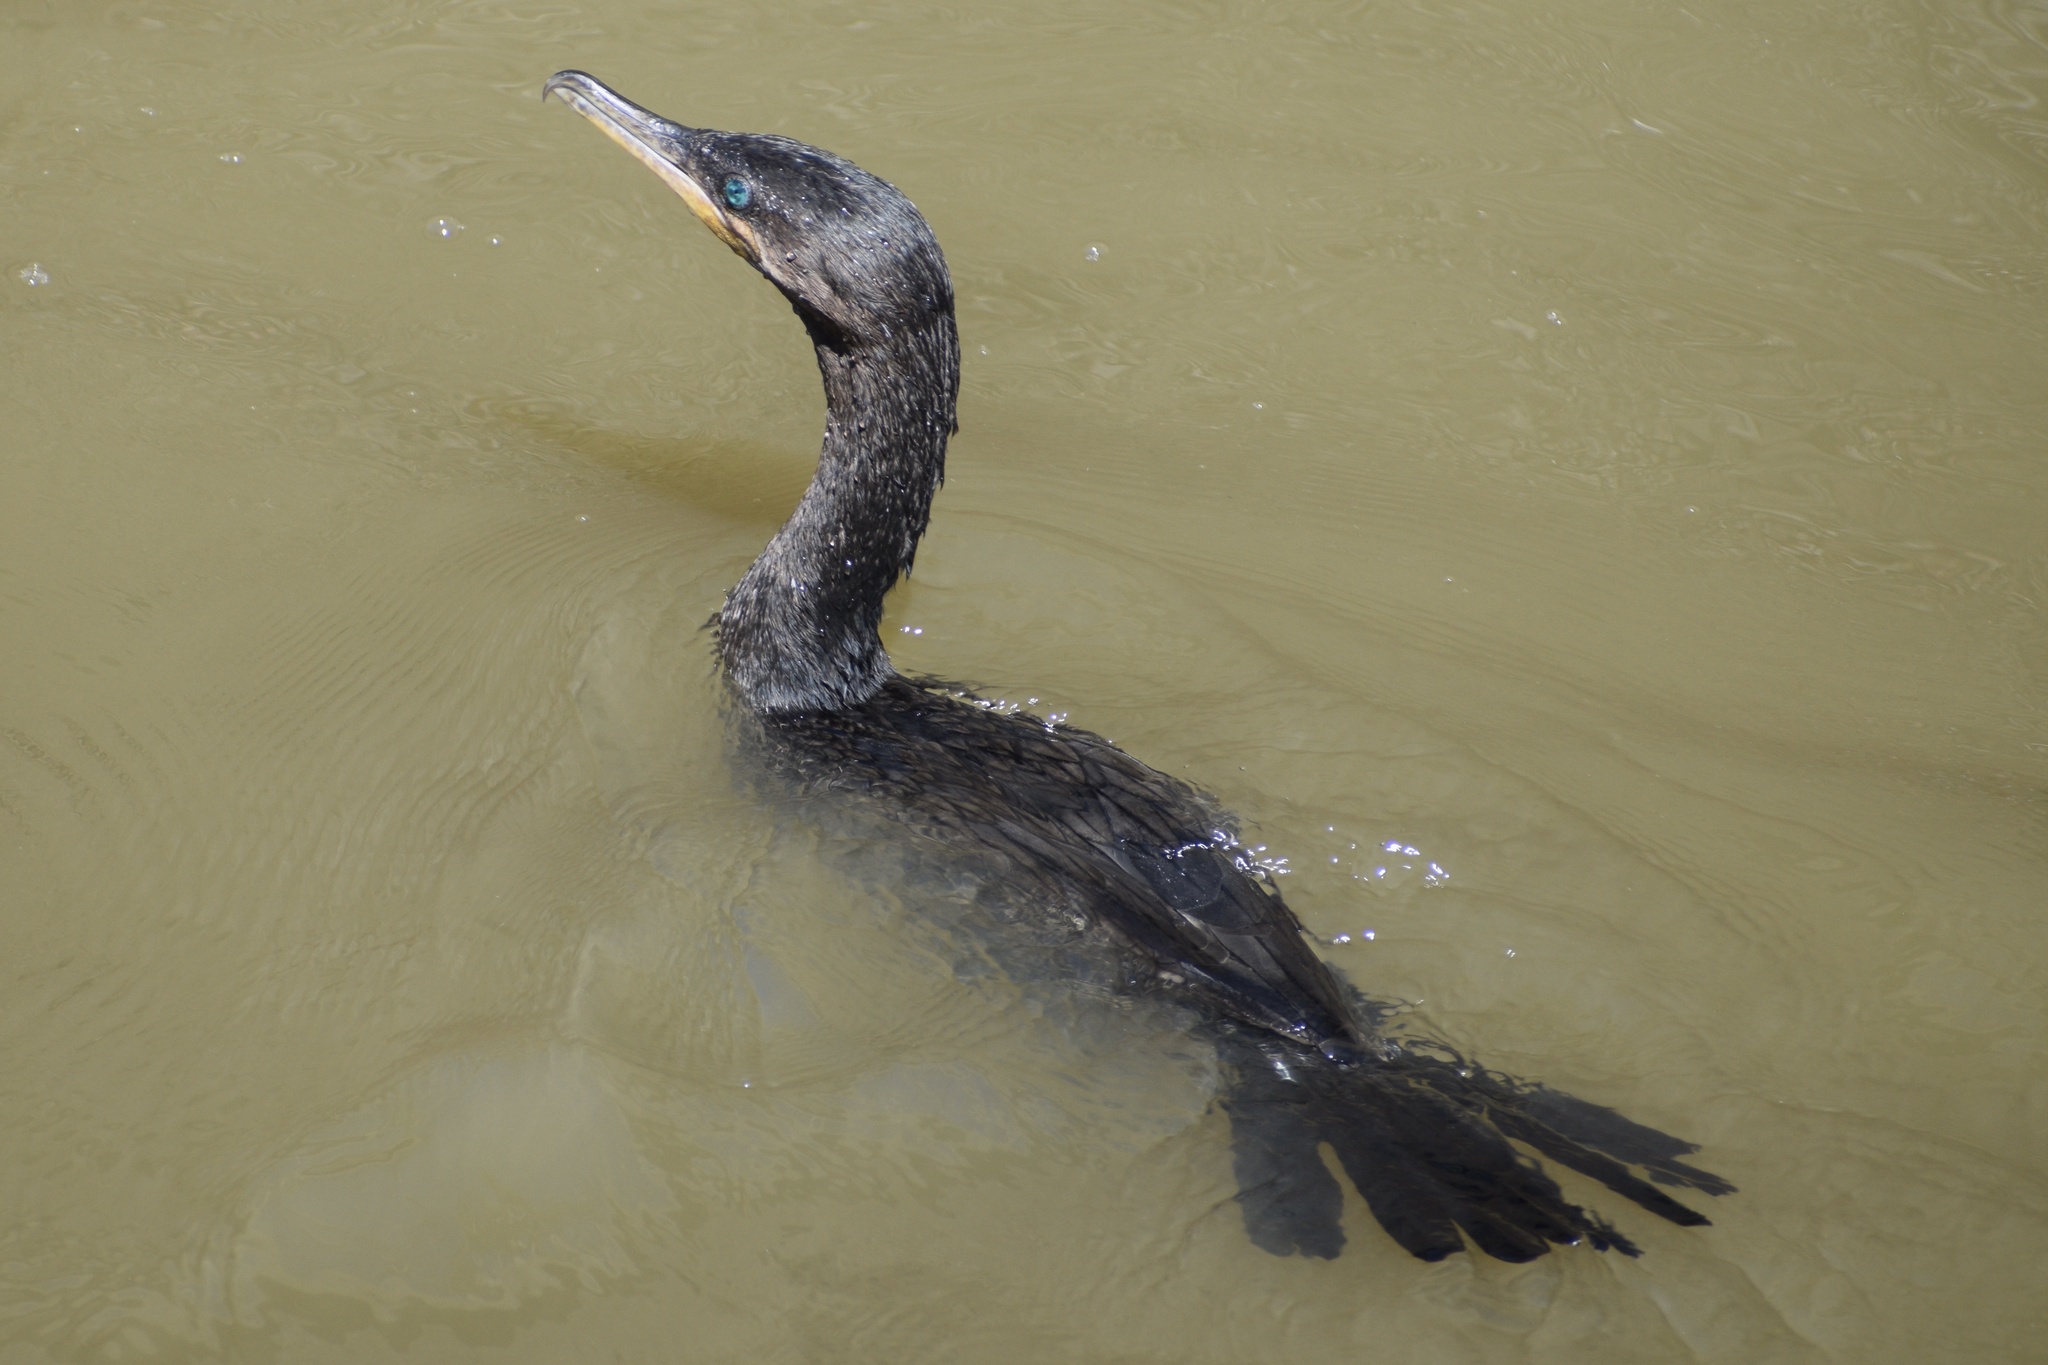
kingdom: Animalia
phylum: Chordata
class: Aves
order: Suliformes
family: Phalacrocoracidae
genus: Phalacrocorax
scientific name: Phalacrocorax brasilianus
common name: Neotropic cormorant
